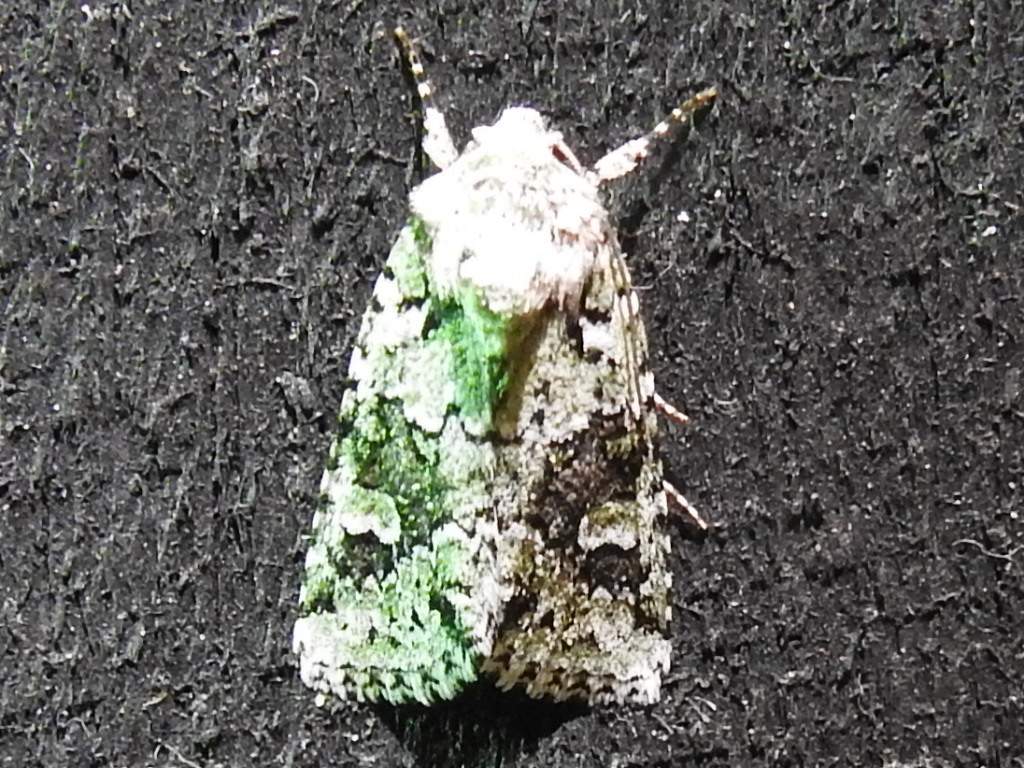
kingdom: Animalia
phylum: Arthropoda
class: Insecta
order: Lepidoptera
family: Noctuidae
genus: Lacinipolia
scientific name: Lacinipolia laudabilis
